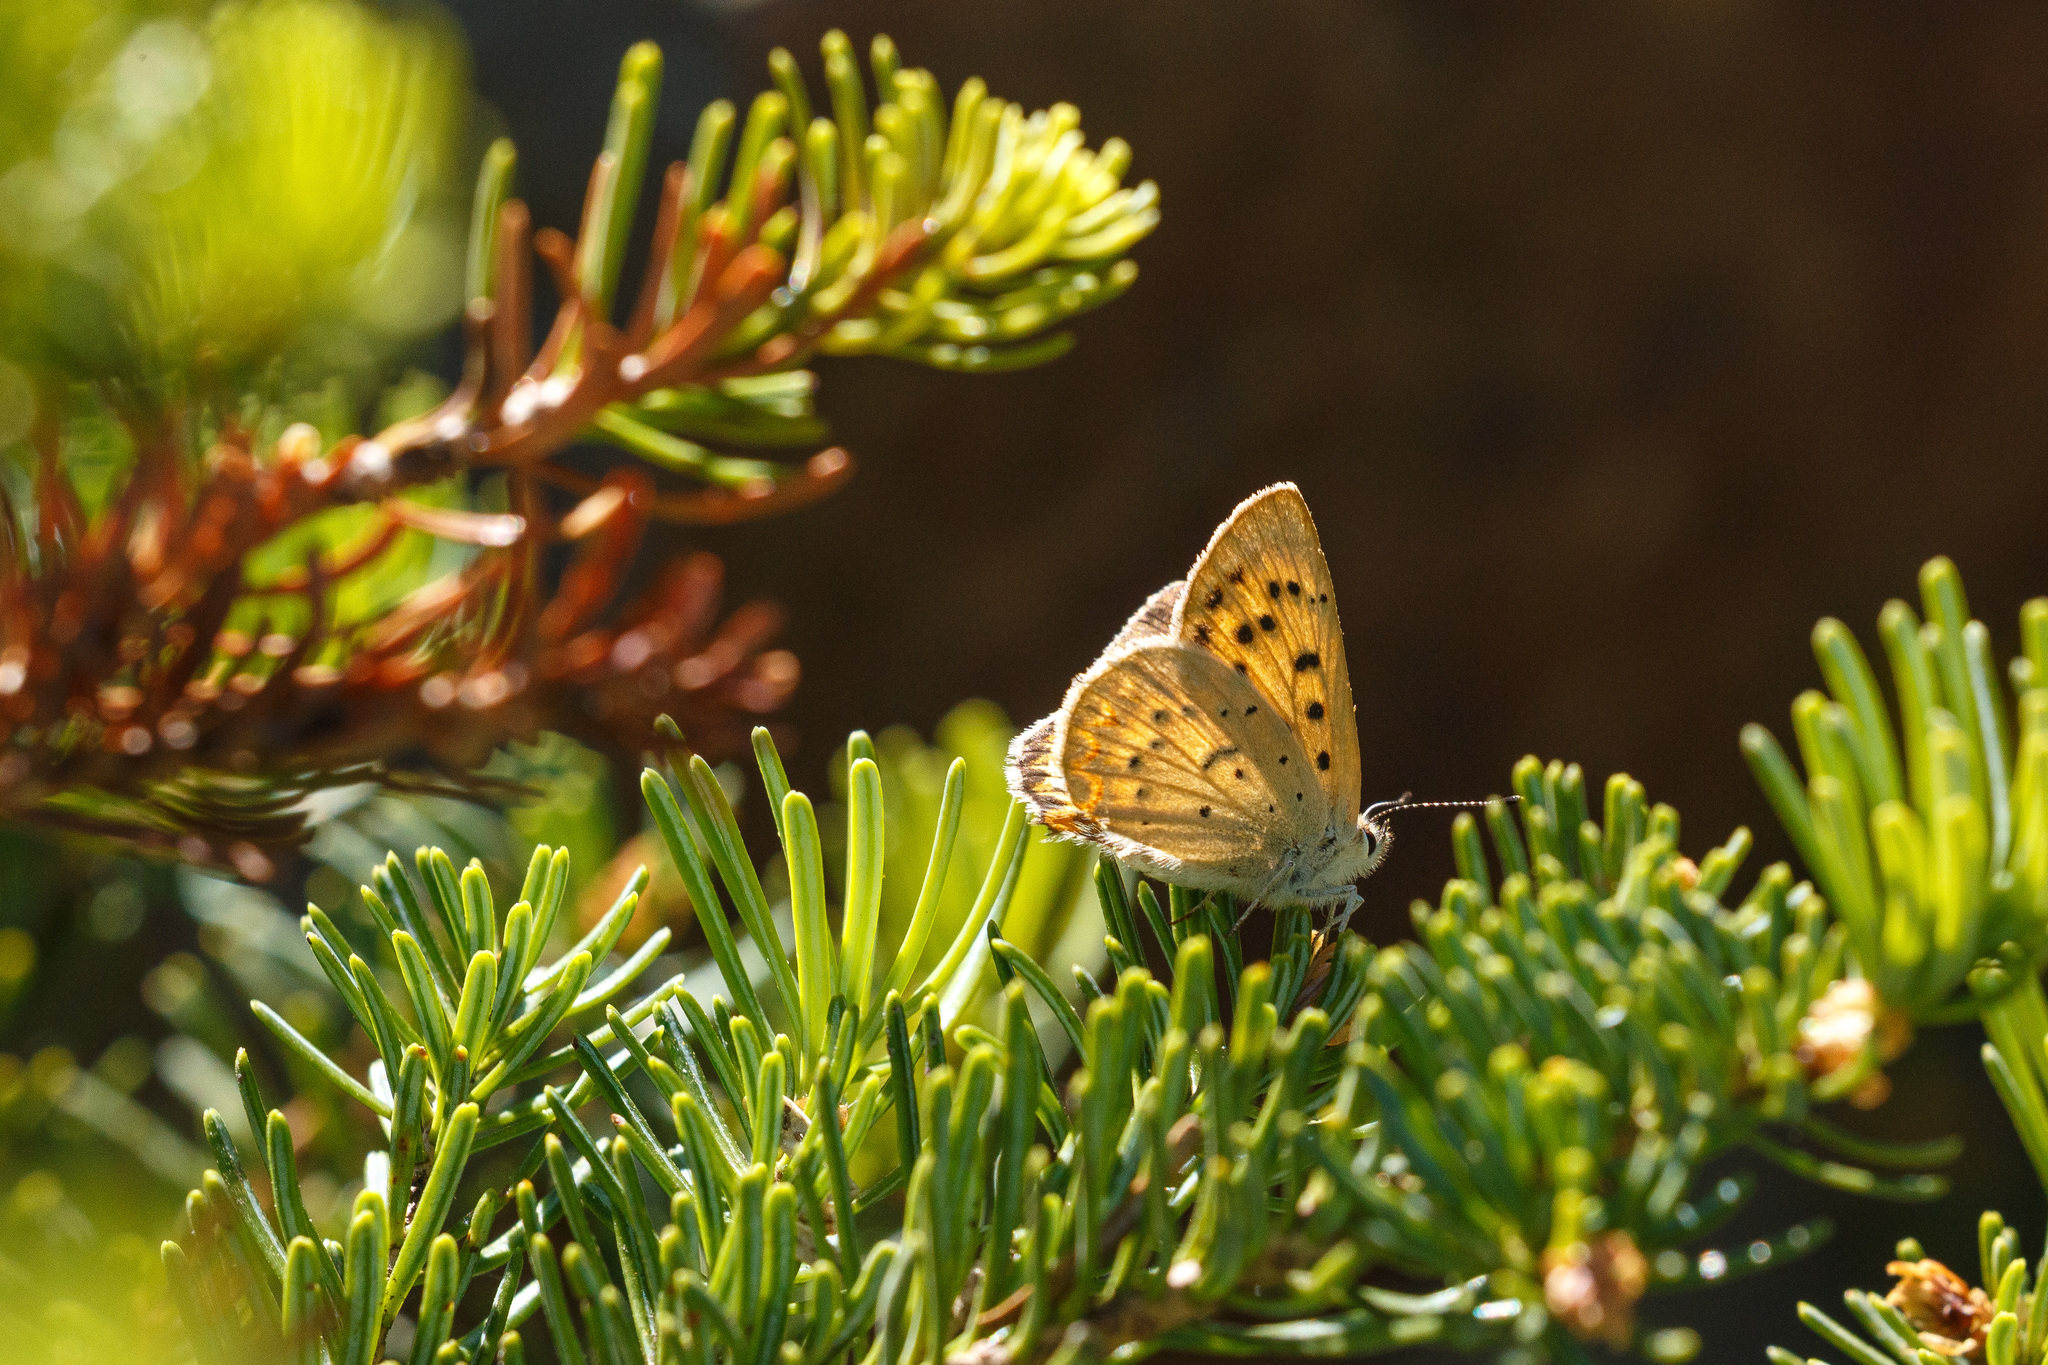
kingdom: Animalia
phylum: Arthropoda
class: Insecta
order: Lepidoptera
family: Lycaenidae
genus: Tharsalea
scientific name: Tharsalea helloides
